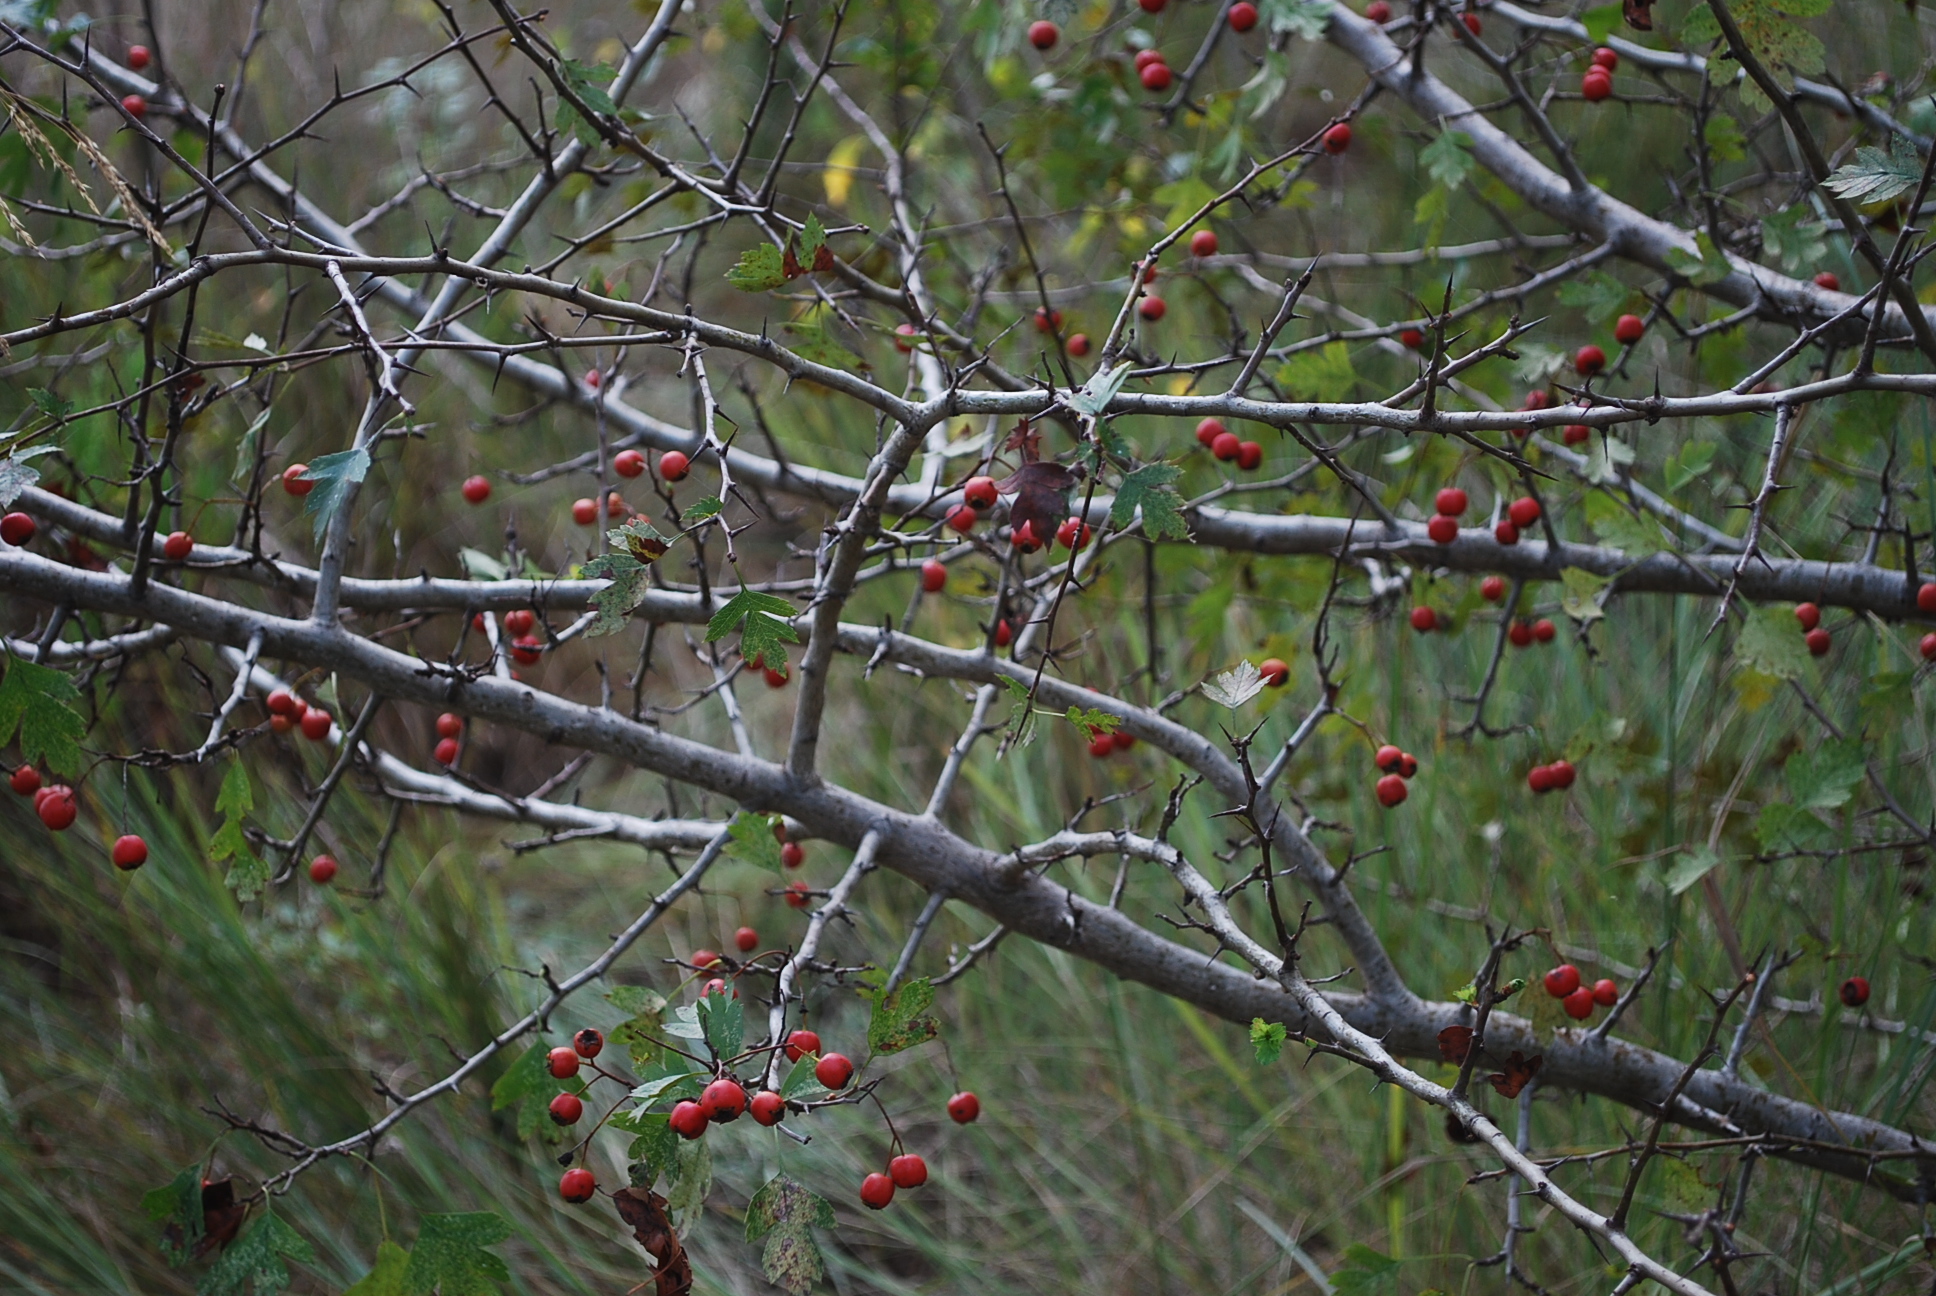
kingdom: Plantae
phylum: Tracheophyta
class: Magnoliopsida
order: Rosales
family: Rosaceae
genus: Crataegus
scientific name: Crataegus monogyna
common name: Hawthorn
